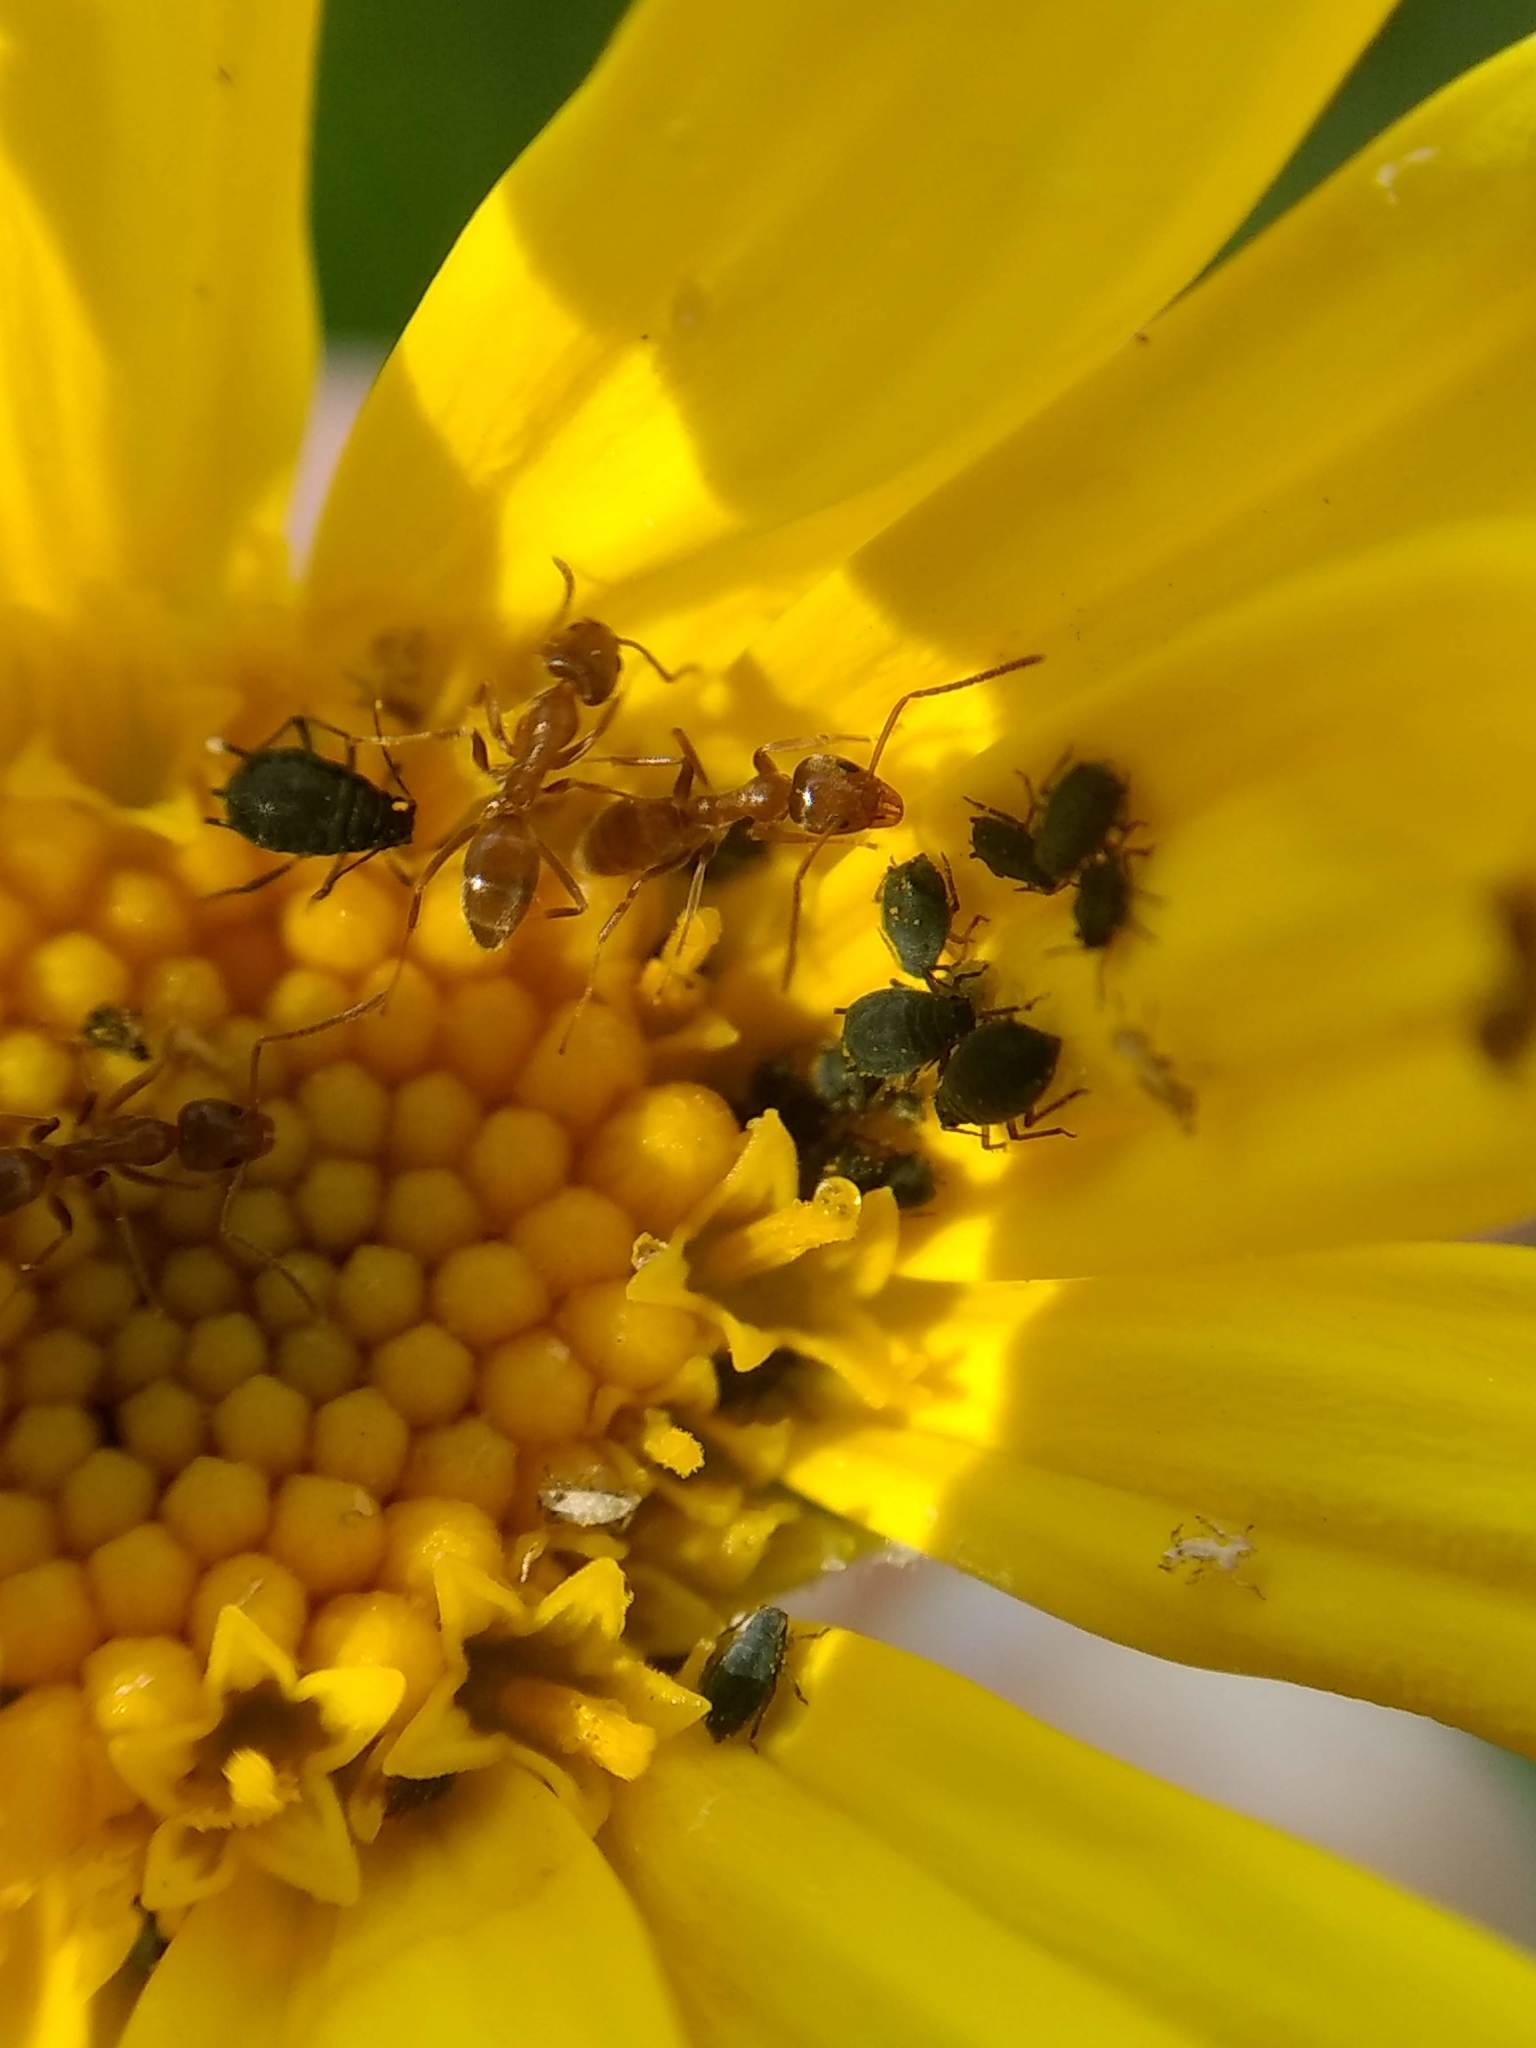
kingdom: Animalia
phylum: Arthropoda
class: Insecta
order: Hymenoptera
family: Formicidae
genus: Linepithema
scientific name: Linepithema humile
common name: Argentine ant
